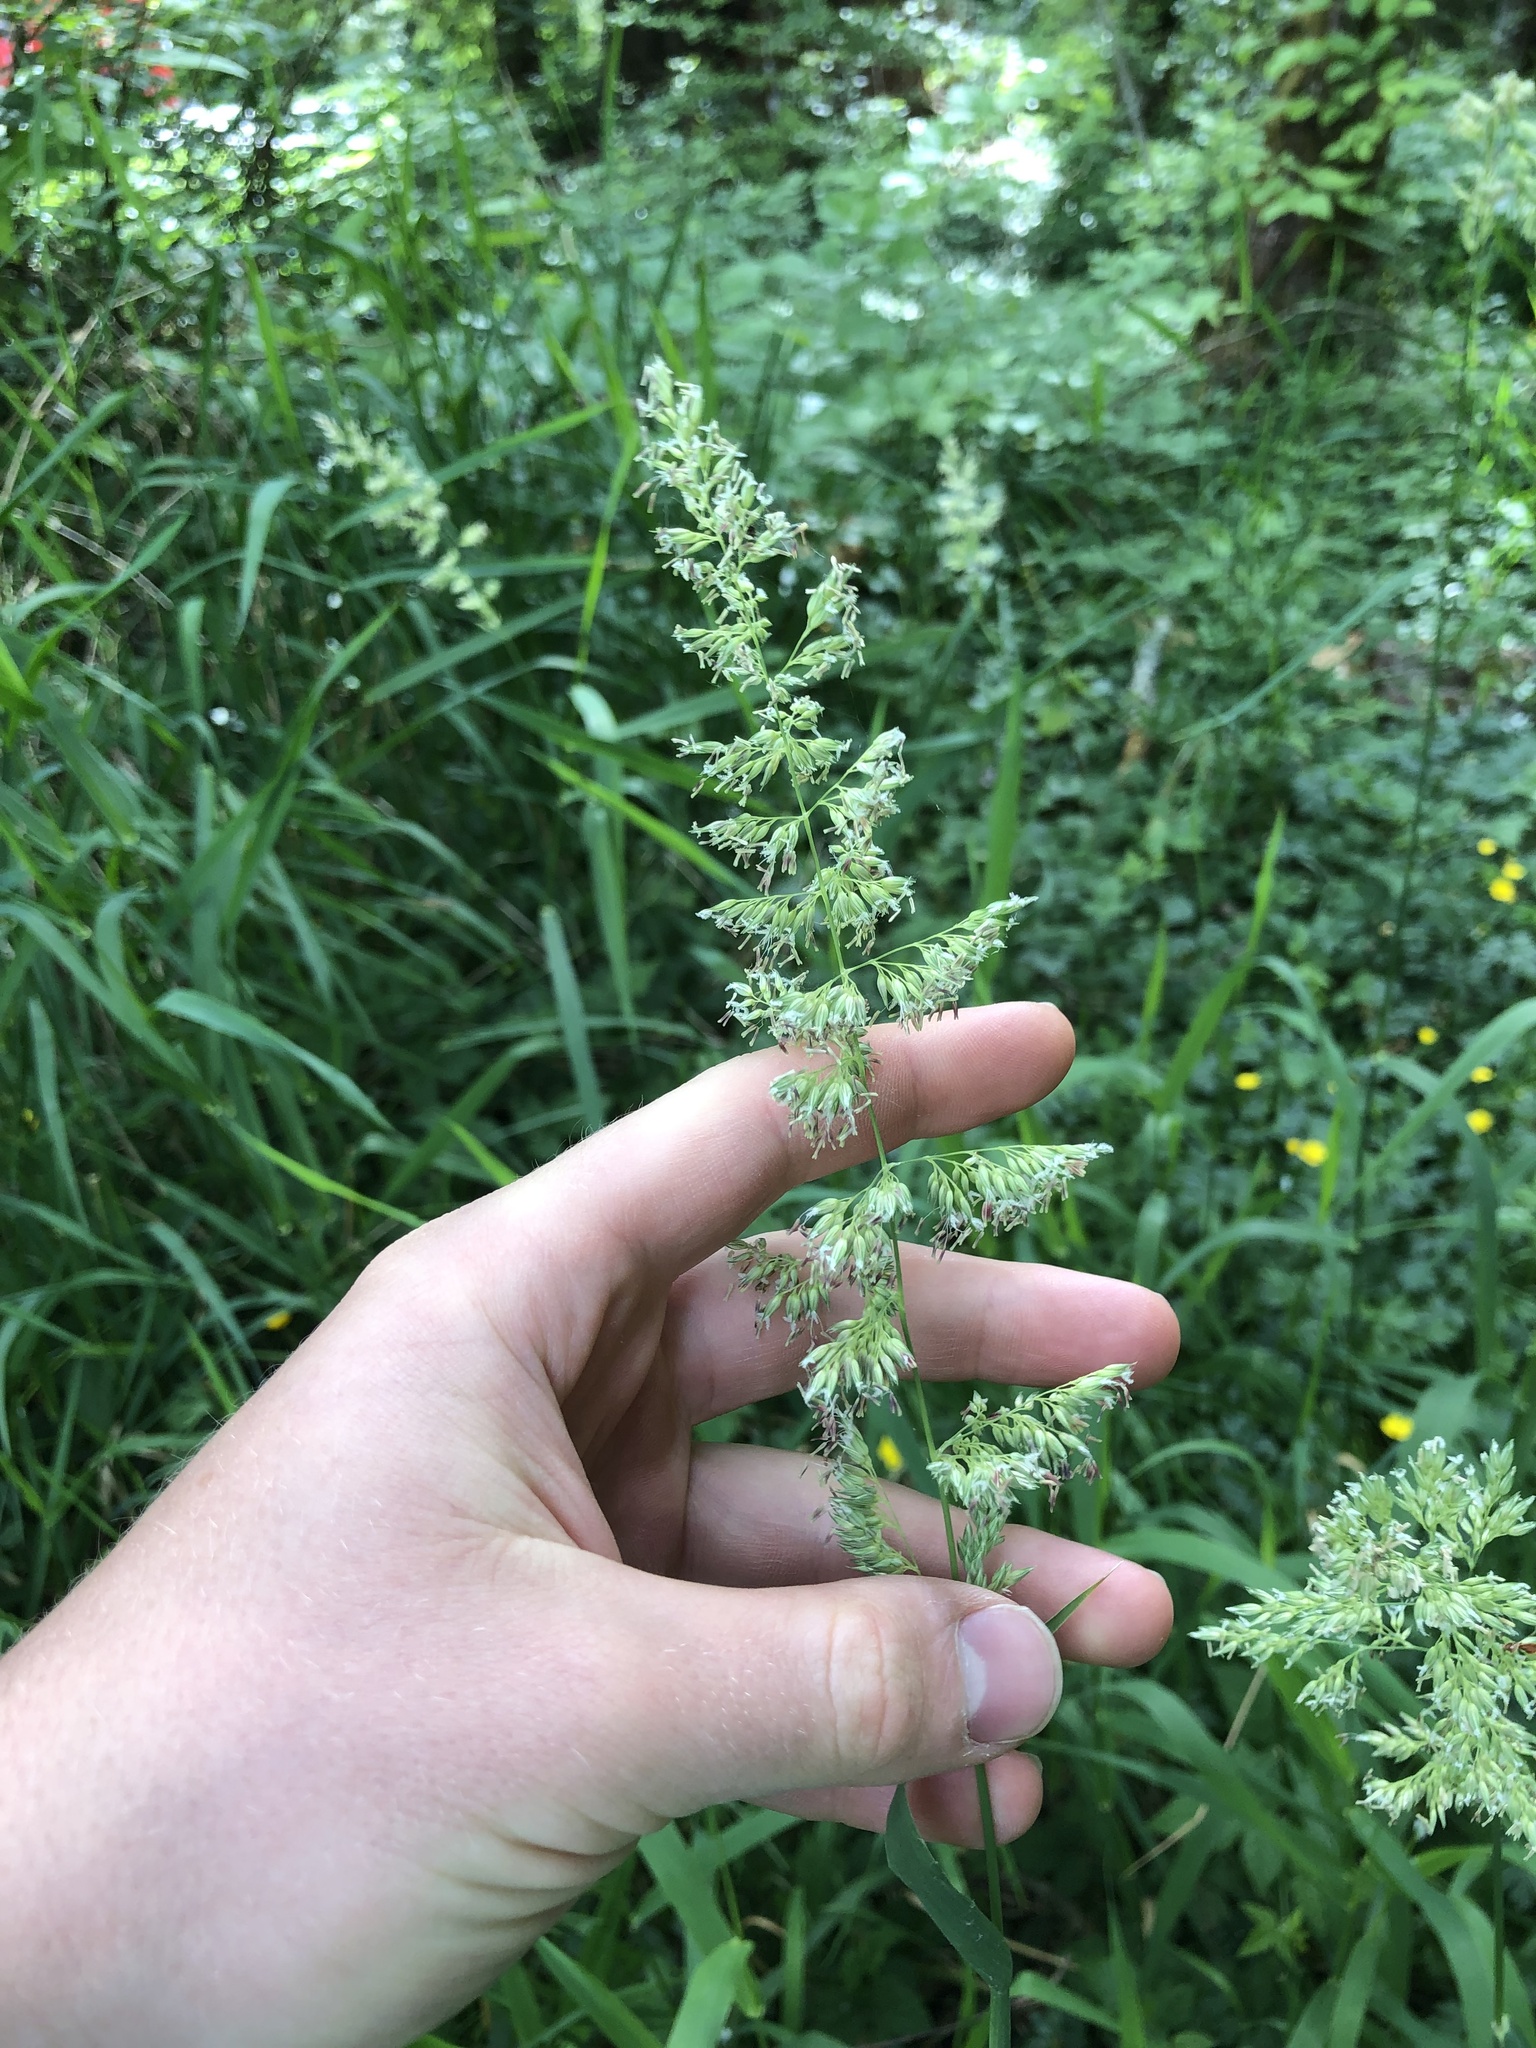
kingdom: Plantae
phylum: Tracheophyta
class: Liliopsida
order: Poales
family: Poaceae
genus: Phalaris
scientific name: Phalaris arundinacea
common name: Reed canary-grass
